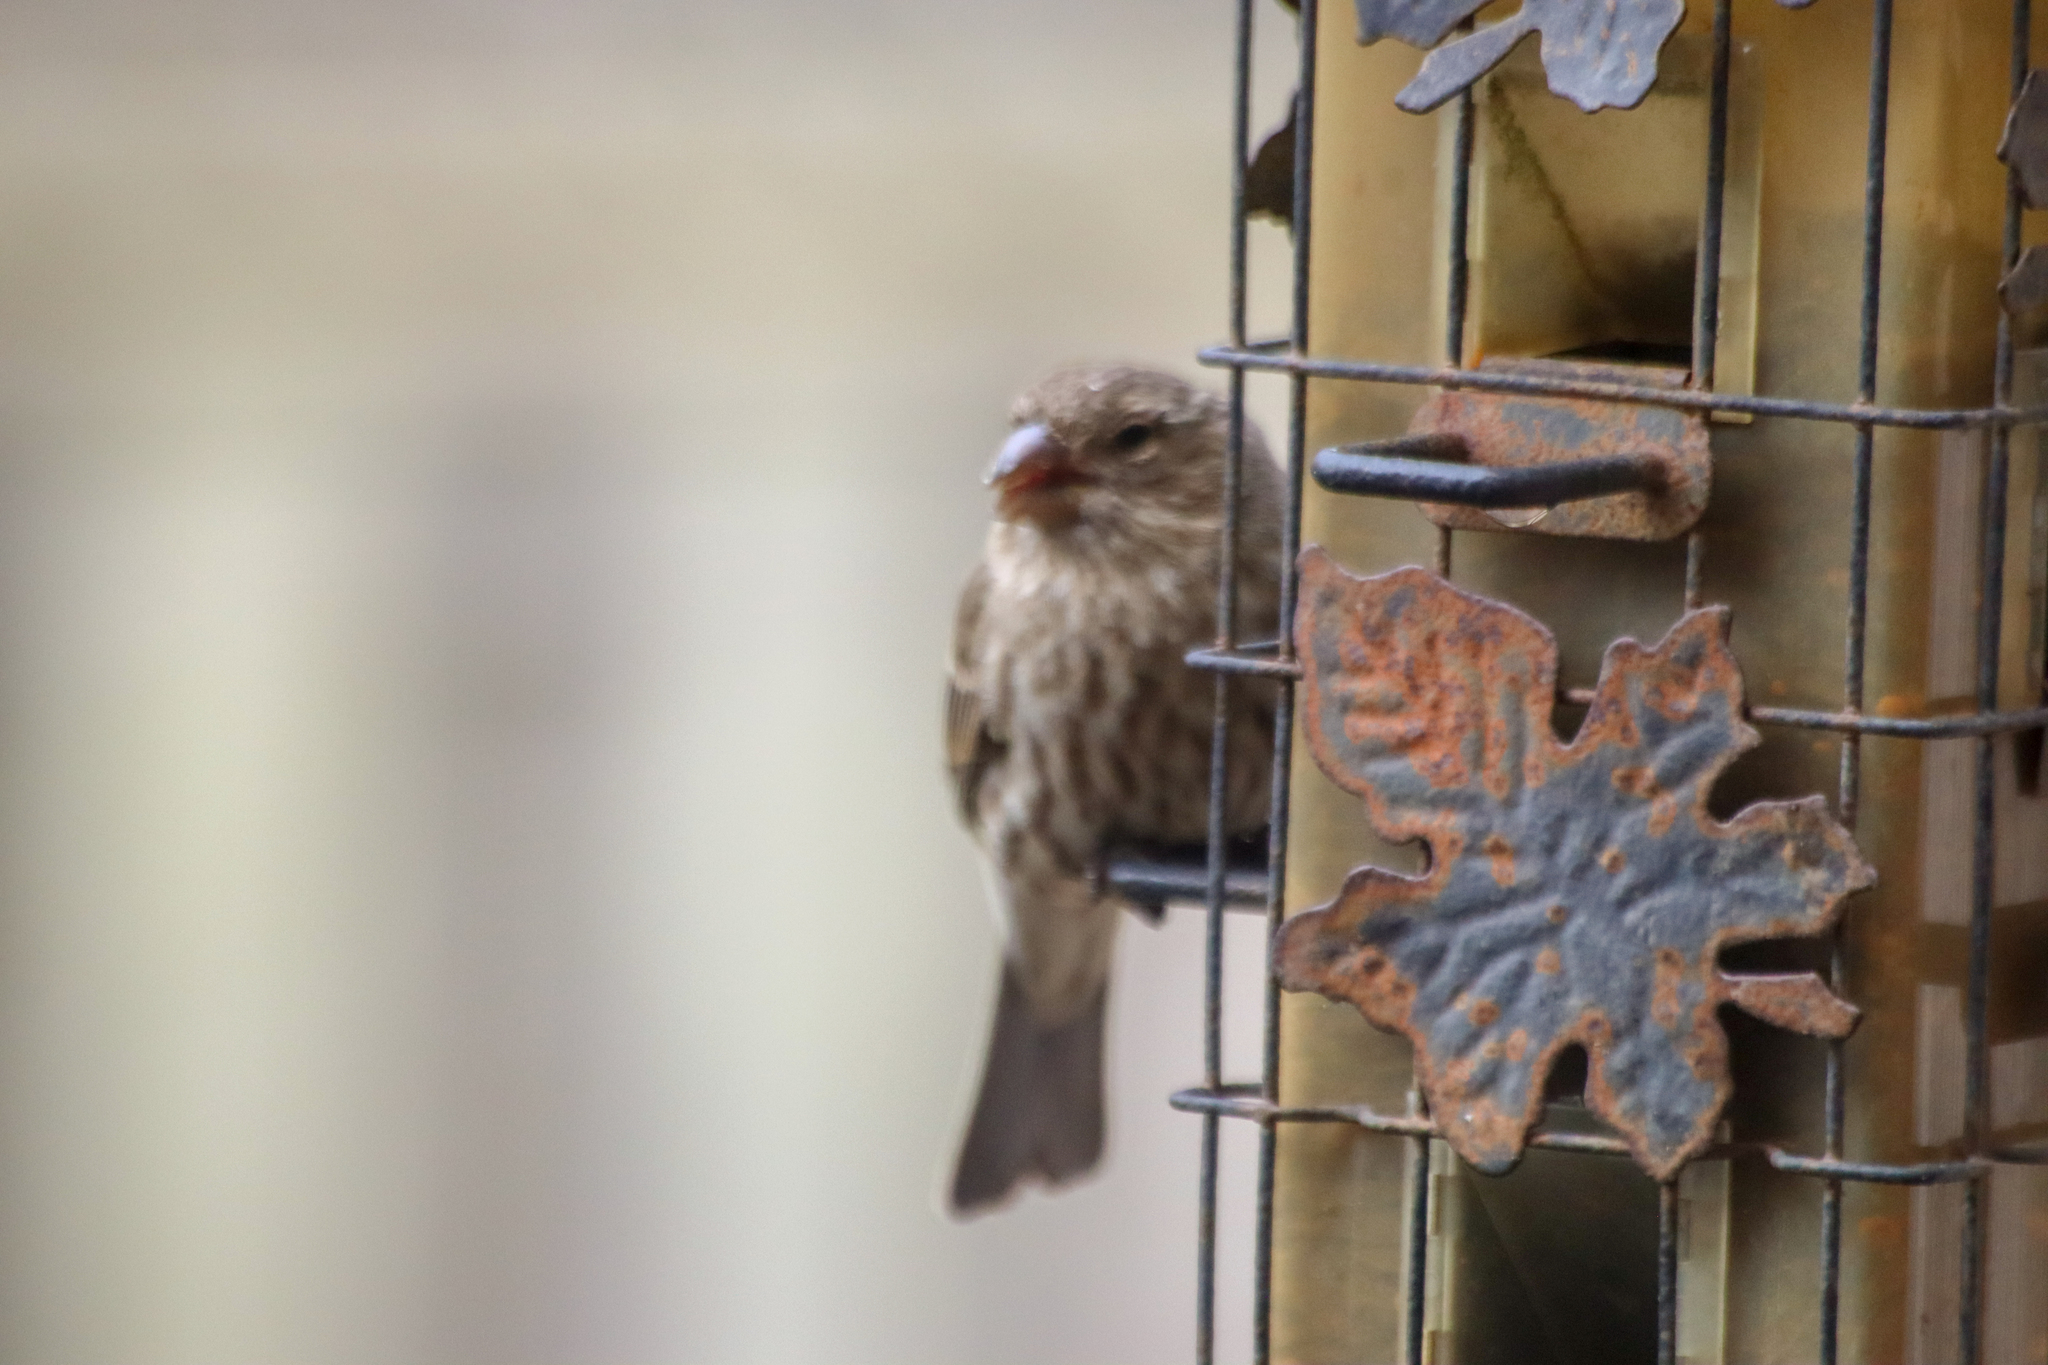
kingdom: Animalia
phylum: Chordata
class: Aves
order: Passeriformes
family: Fringillidae
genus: Haemorhous
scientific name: Haemorhous mexicanus
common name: House finch
